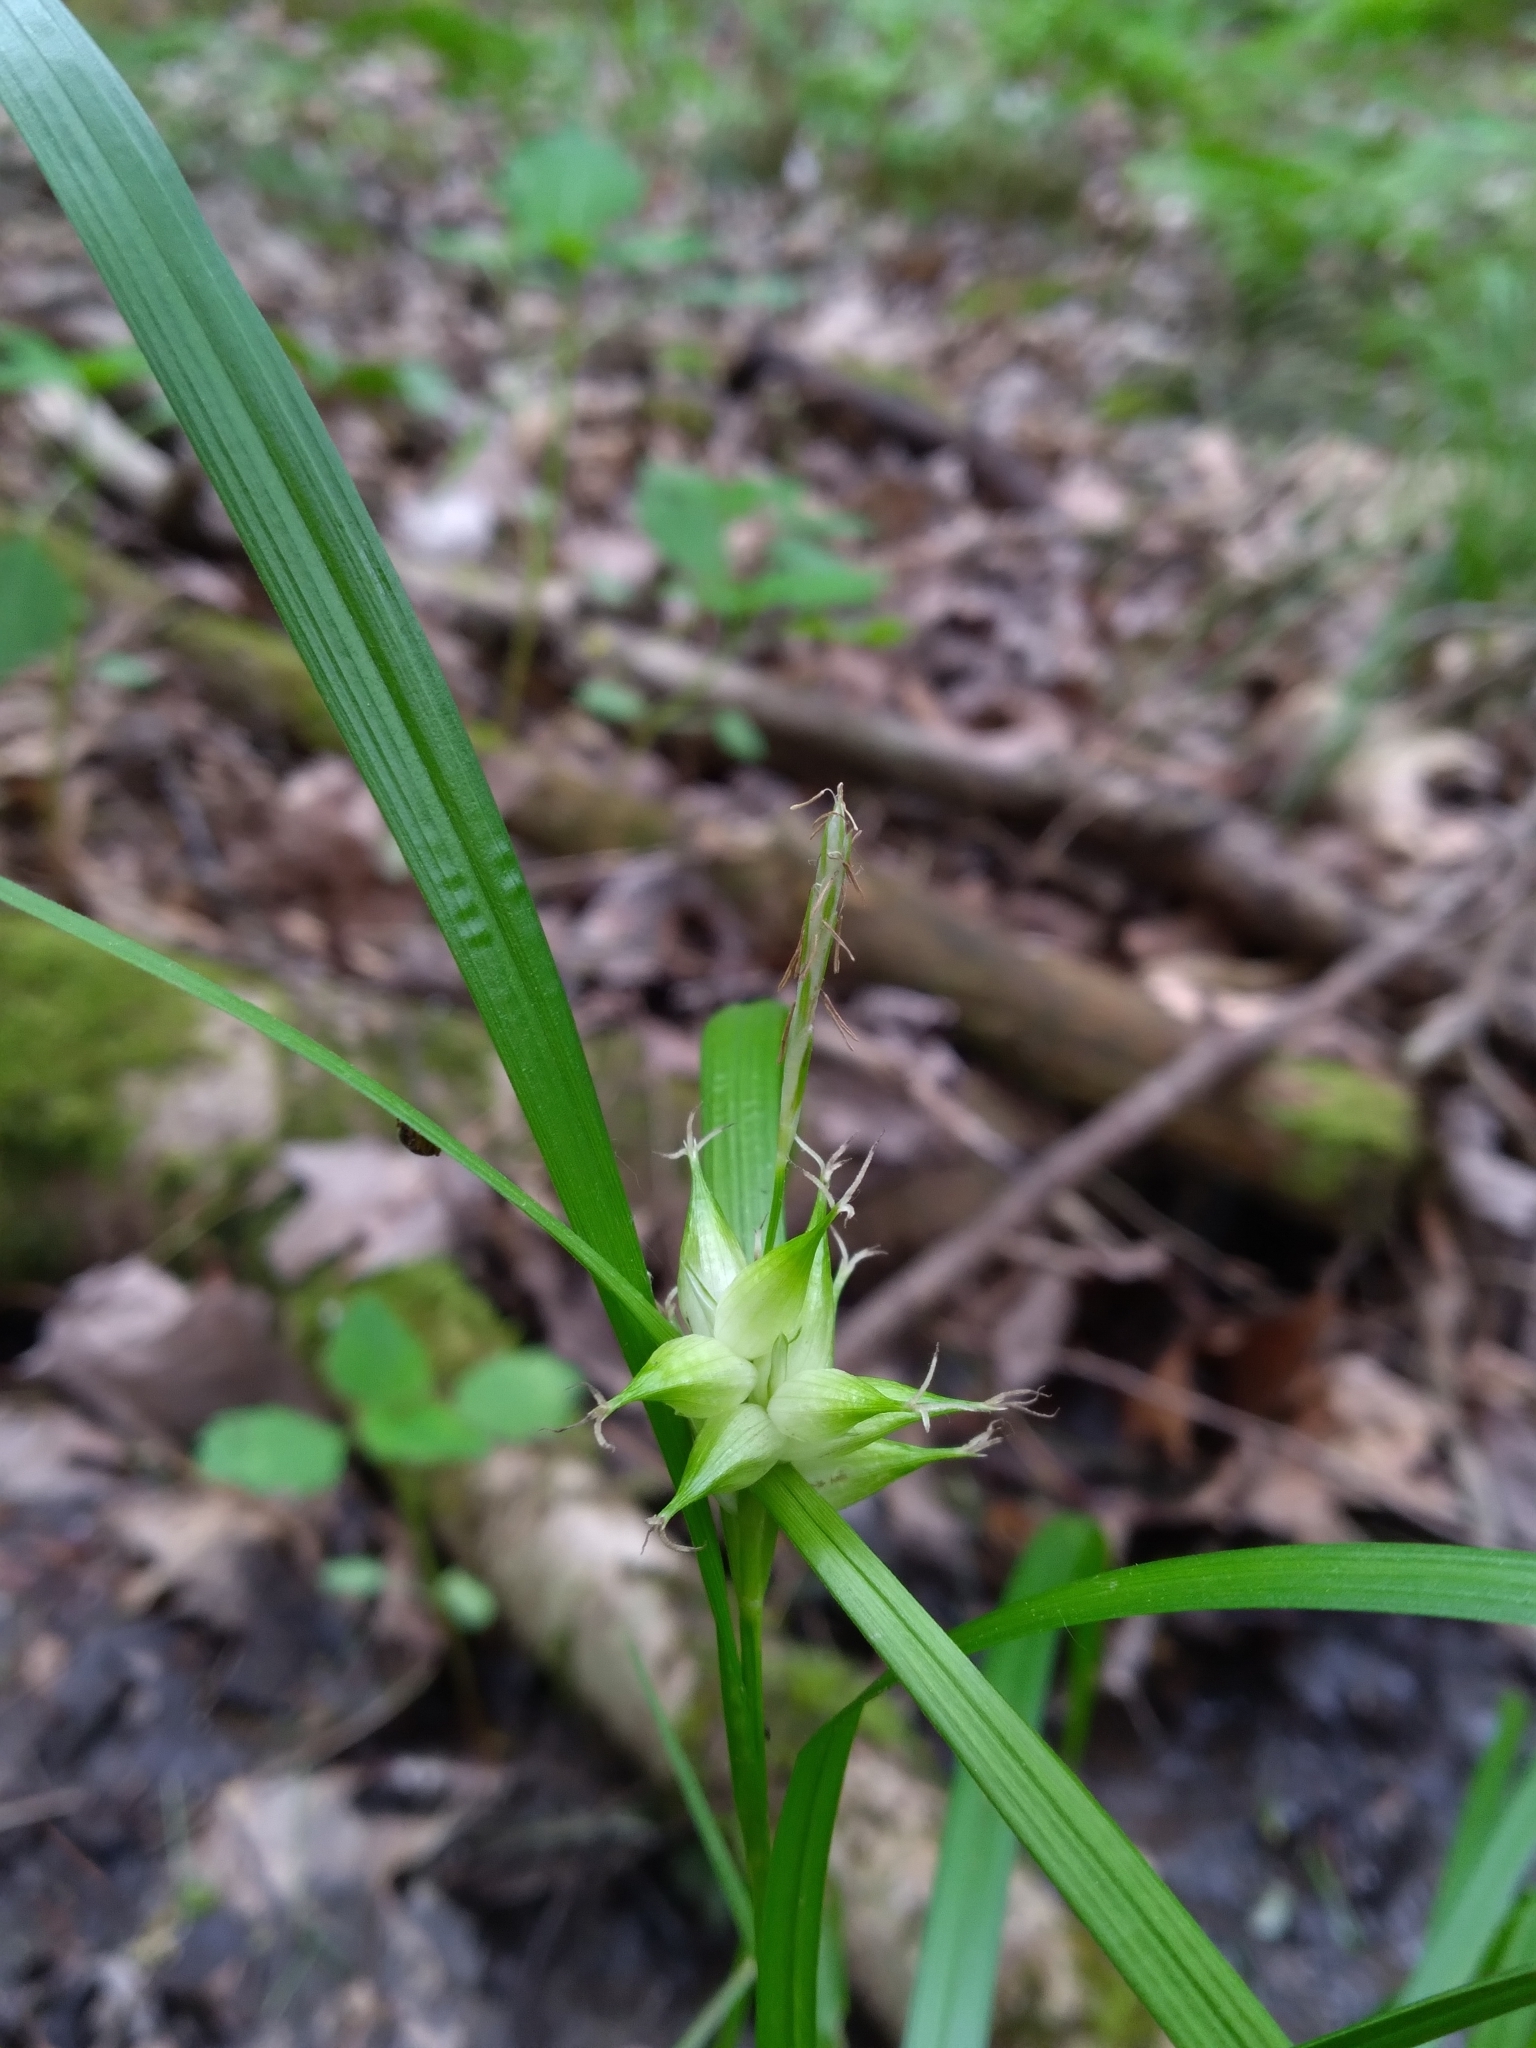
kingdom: Plantae
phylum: Tracheophyta
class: Liliopsida
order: Poales
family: Cyperaceae
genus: Carex
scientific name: Carex intumescens
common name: Greater bladder sedge
